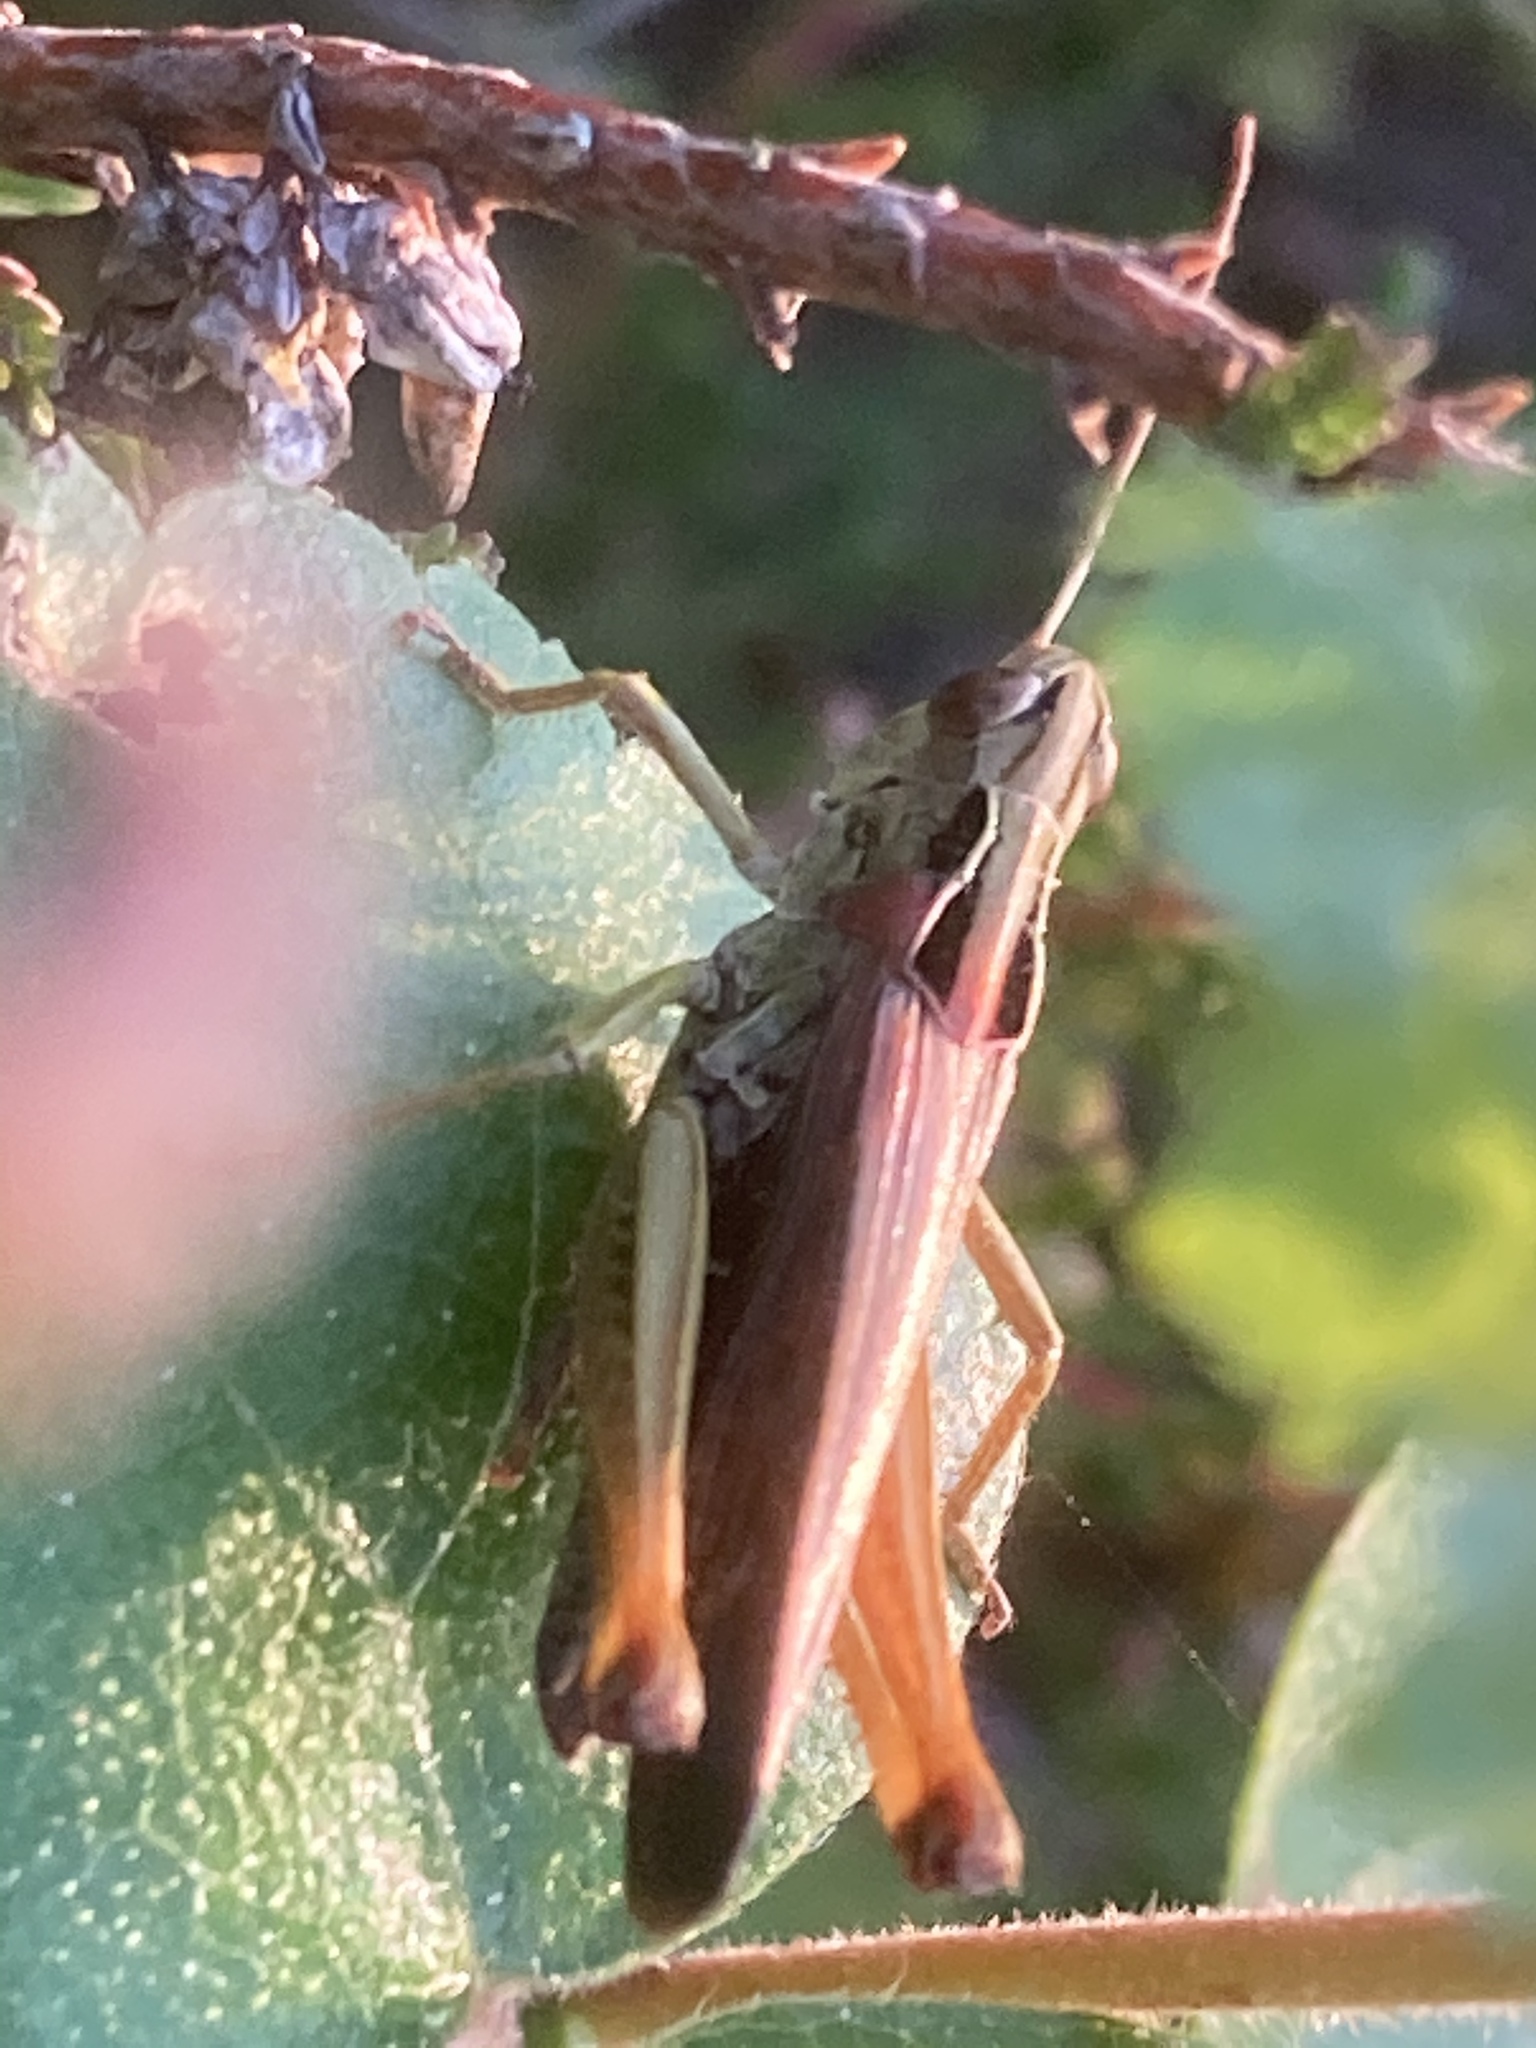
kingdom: Animalia
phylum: Arthropoda
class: Insecta
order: Orthoptera
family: Acrididae
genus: Omocestus
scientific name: Omocestus viridulus
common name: Common green grasshopper
